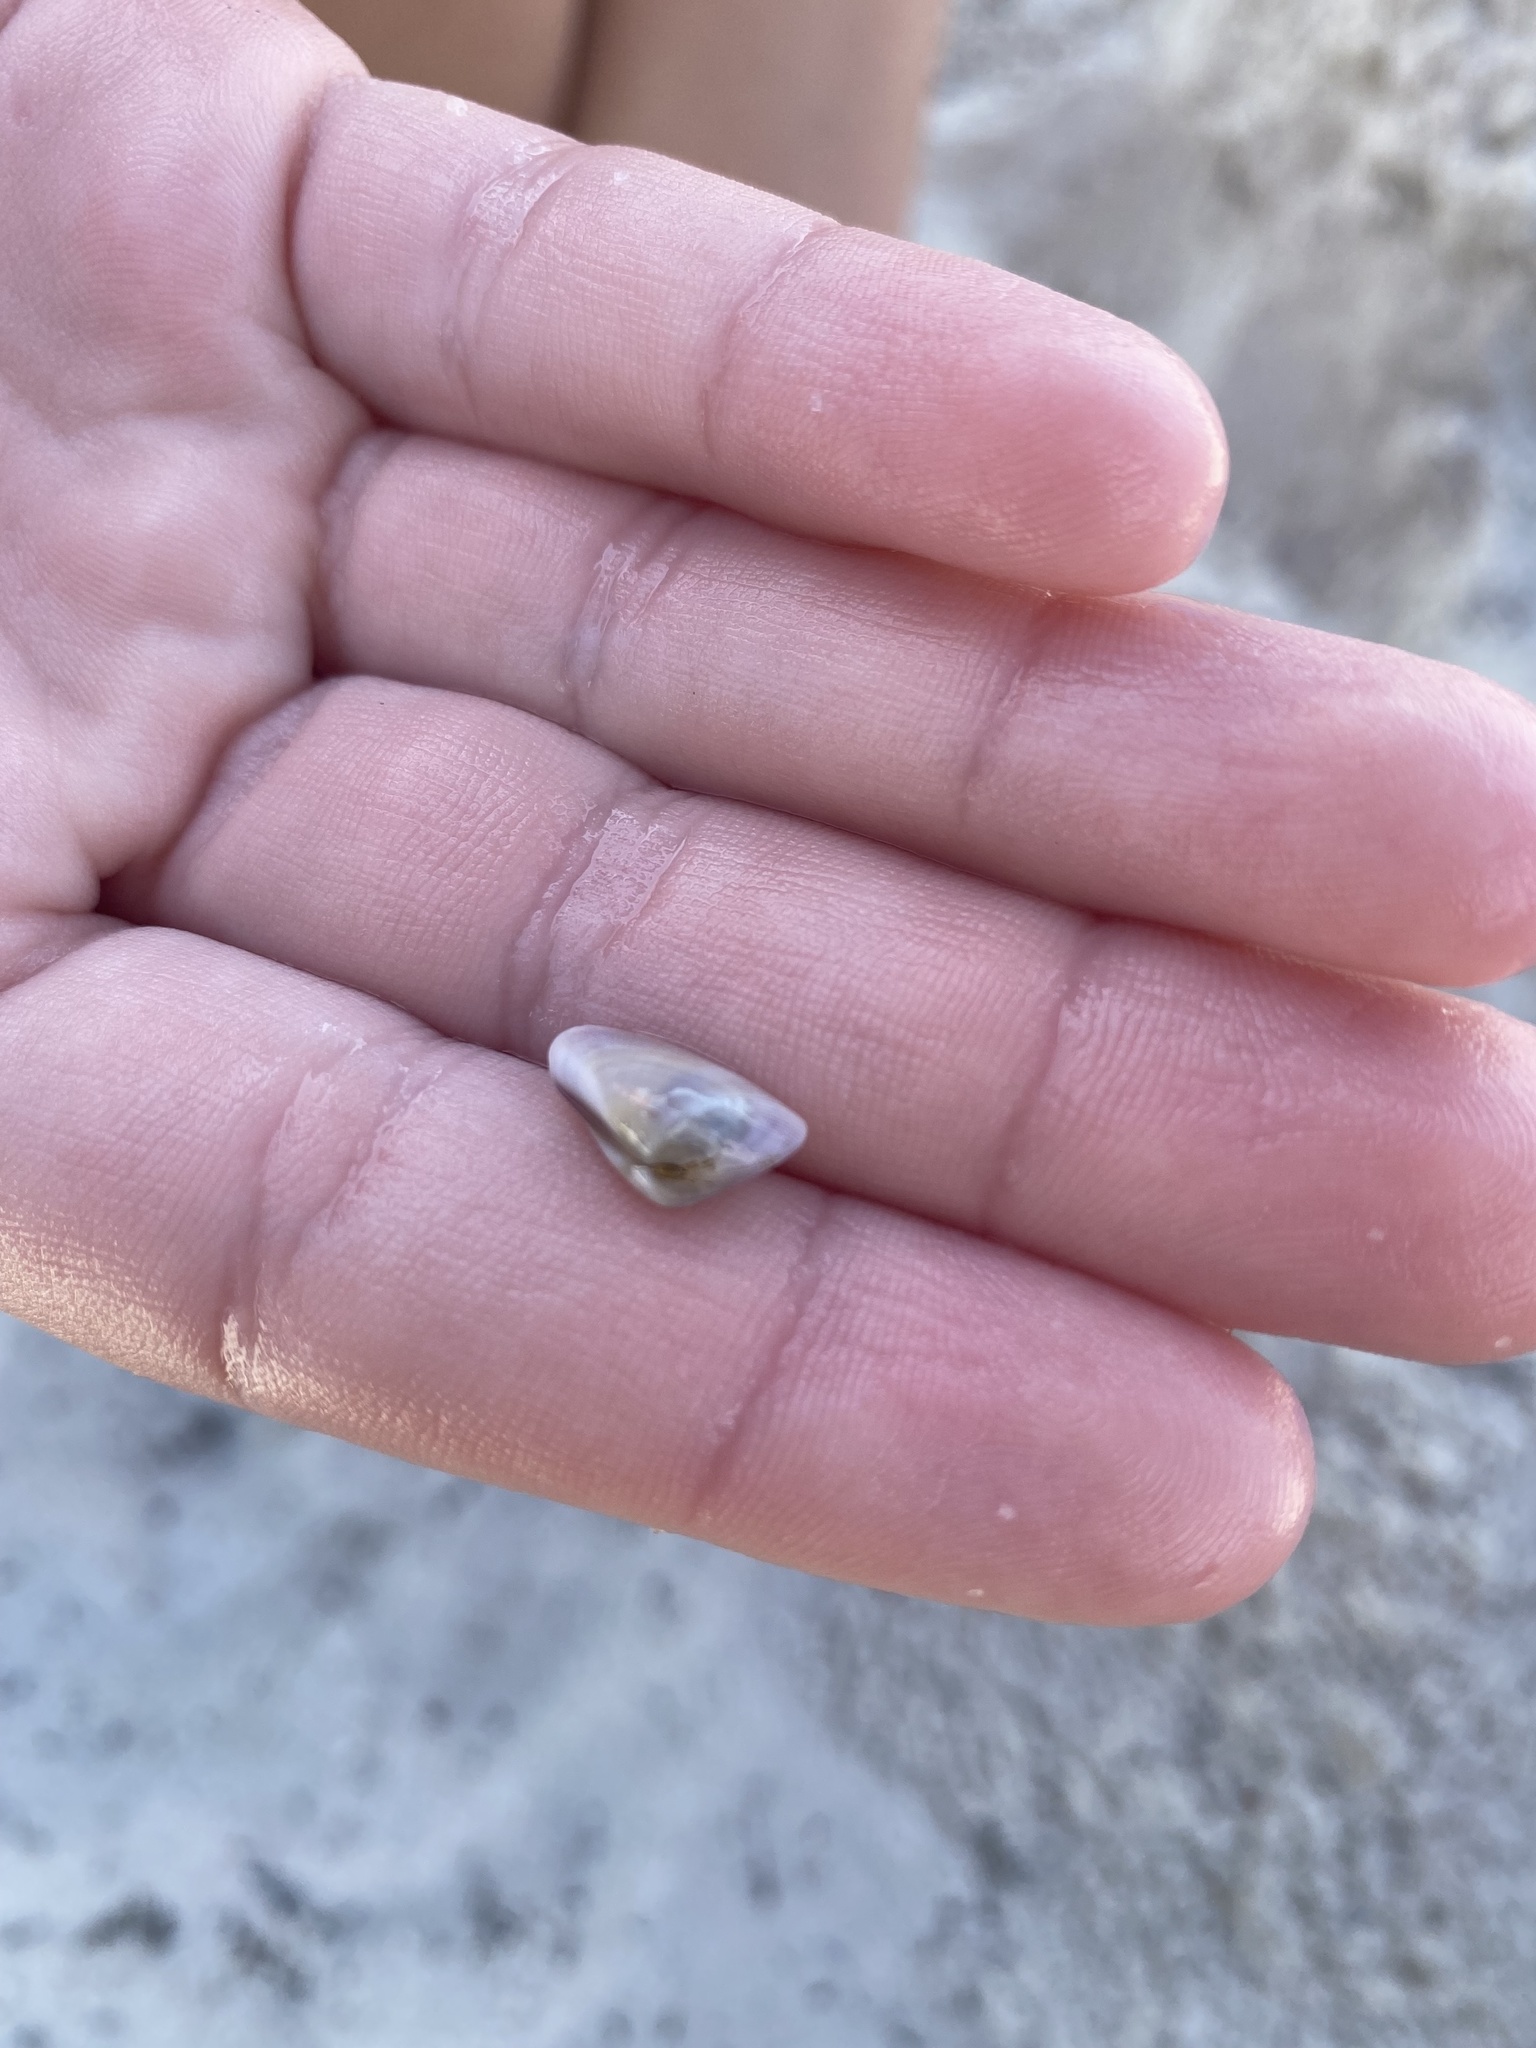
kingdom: Animalia
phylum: Mollusca
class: Bivalvia
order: Cardiida
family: Donacidae
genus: Donax
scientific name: Donax variabilis
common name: Butterfly shell
